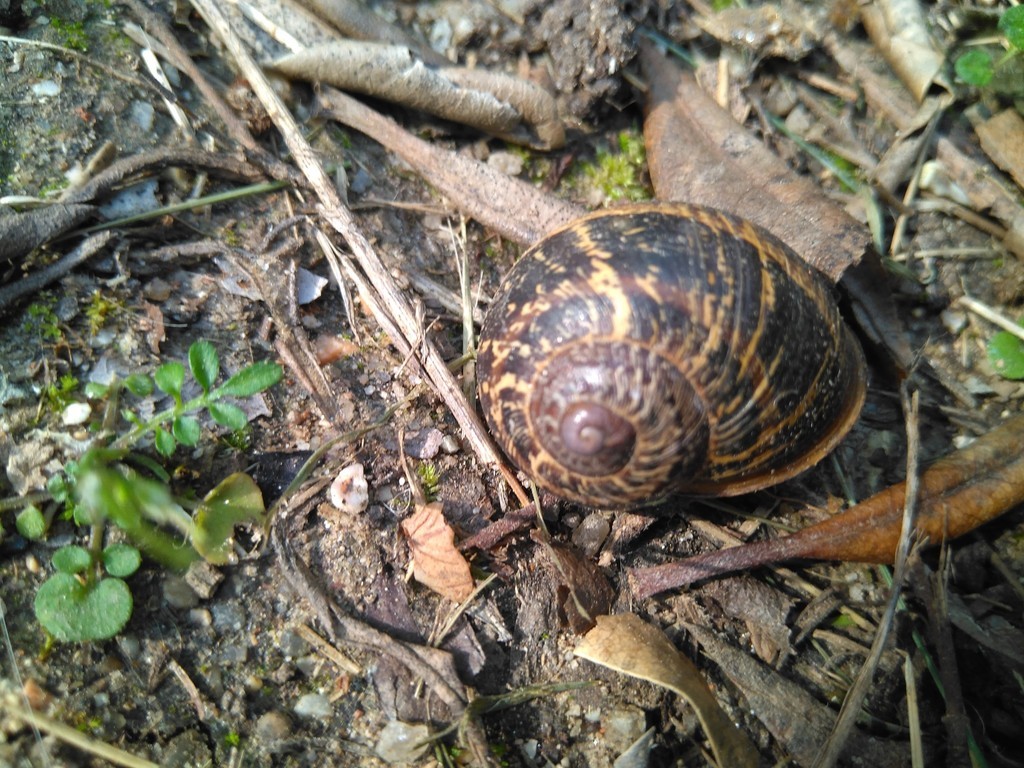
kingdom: Animalia
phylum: Mollusca
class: Gastropoda
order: Stylommatophora
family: Helicidae
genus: Cornu
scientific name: Cornu aspersum
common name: Brown garden snail
